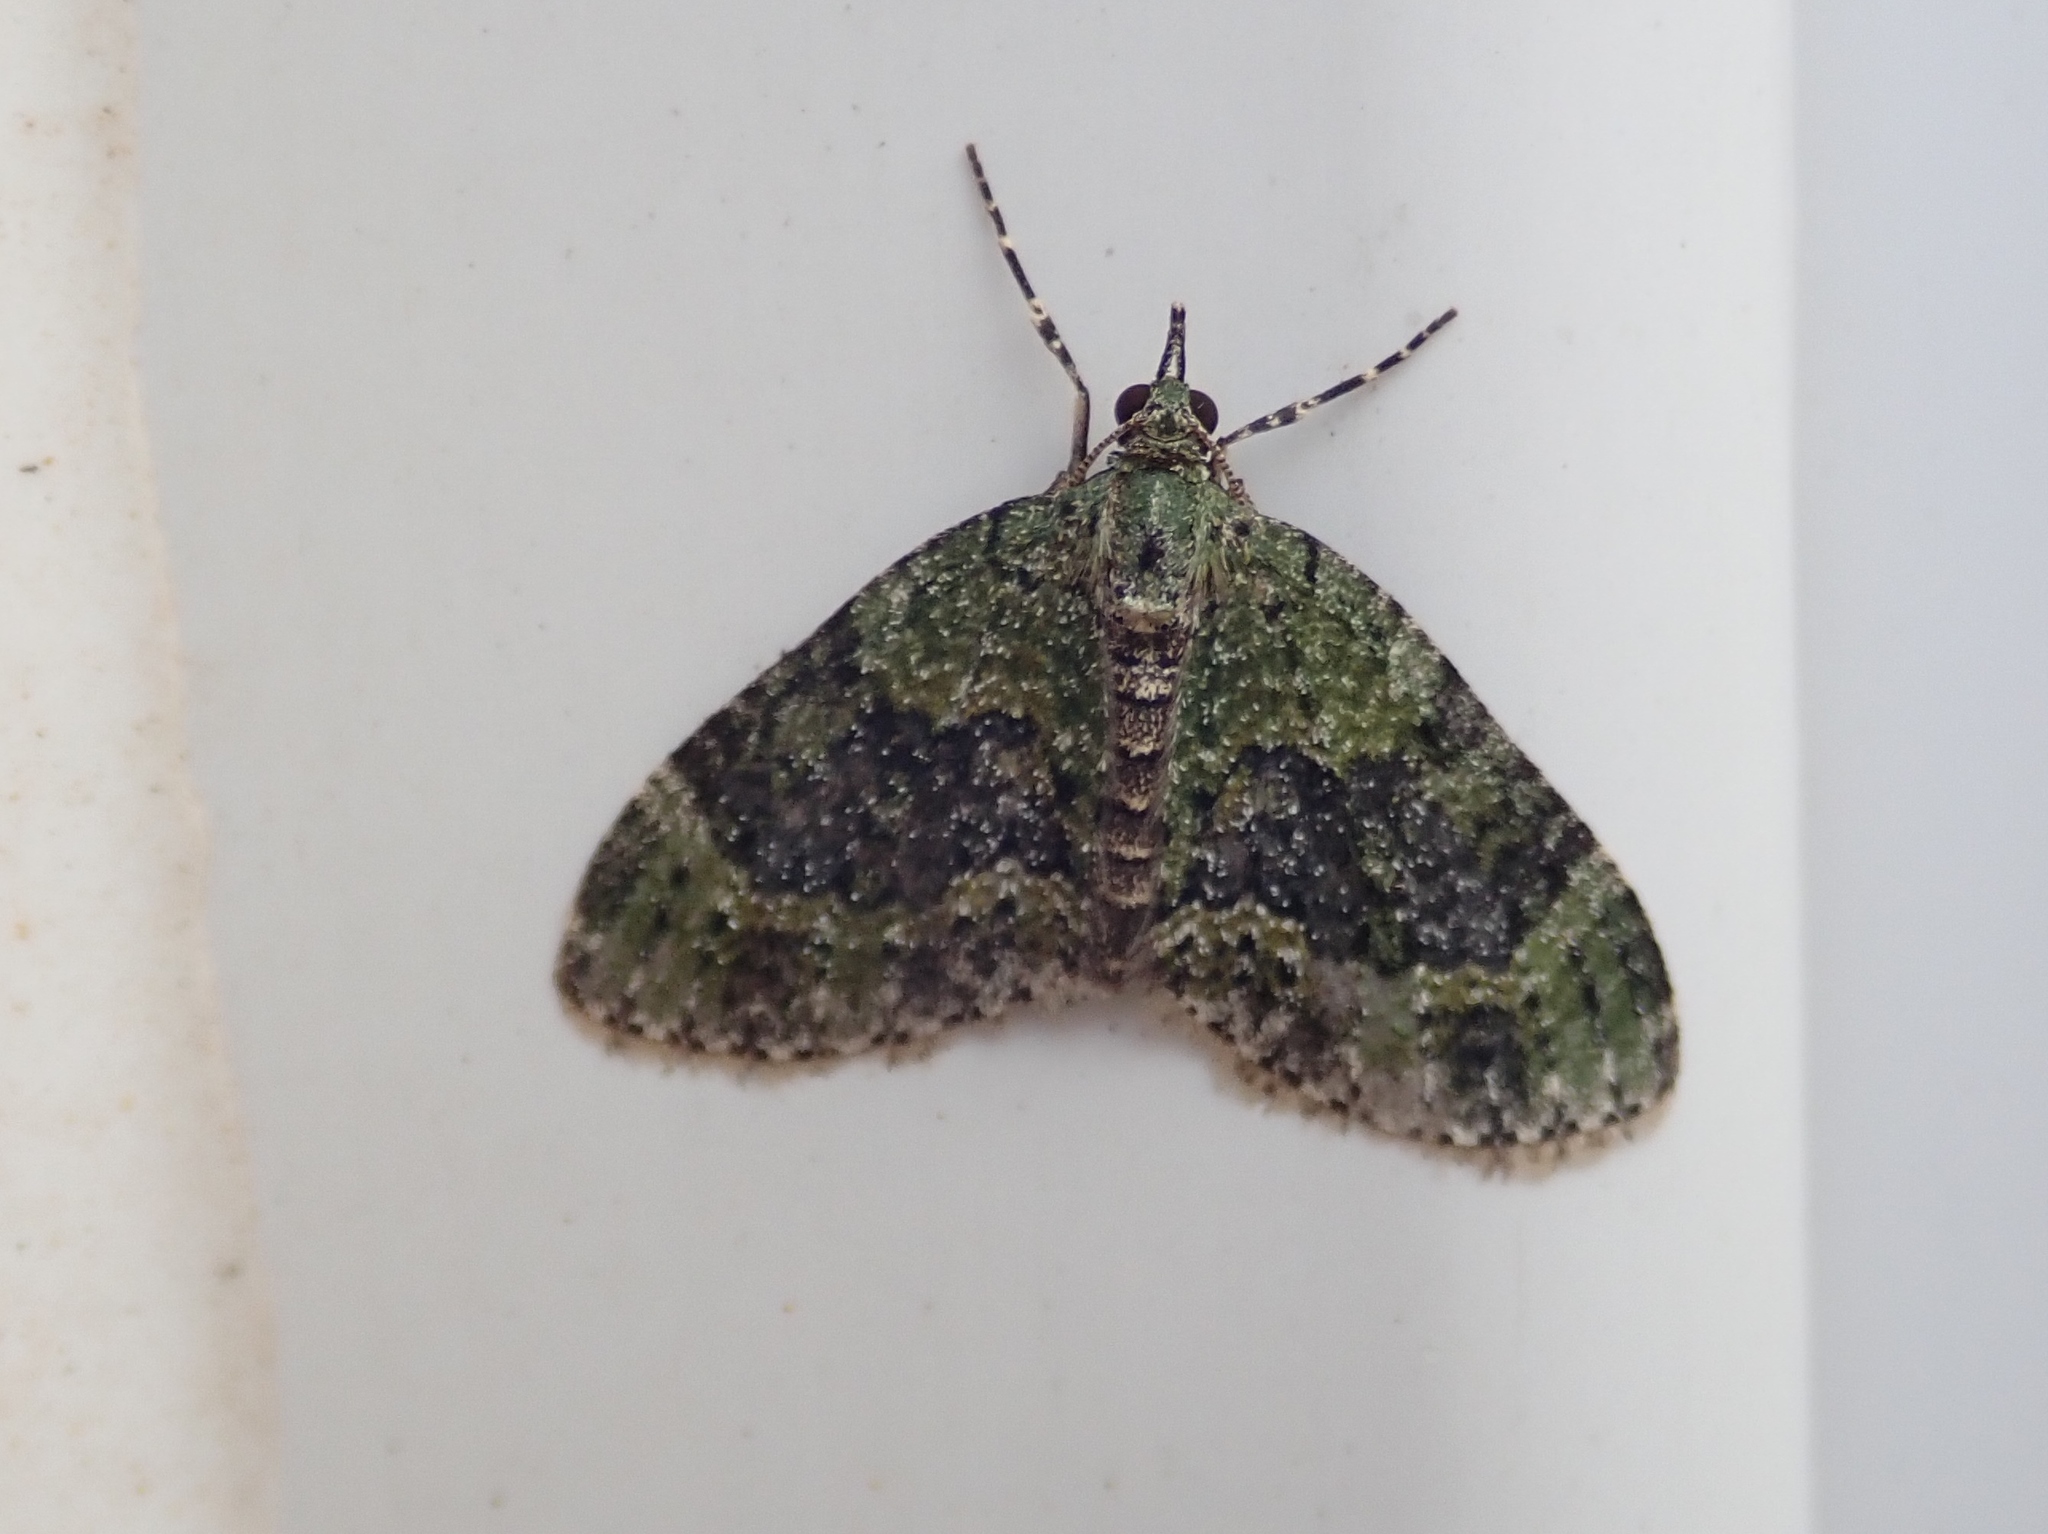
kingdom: Animalia
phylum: Arthropoda
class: Insecta
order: Lepidoptera
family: Geometridae
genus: Acasis
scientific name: Acasis viretata
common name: Yellow-barred brindle
